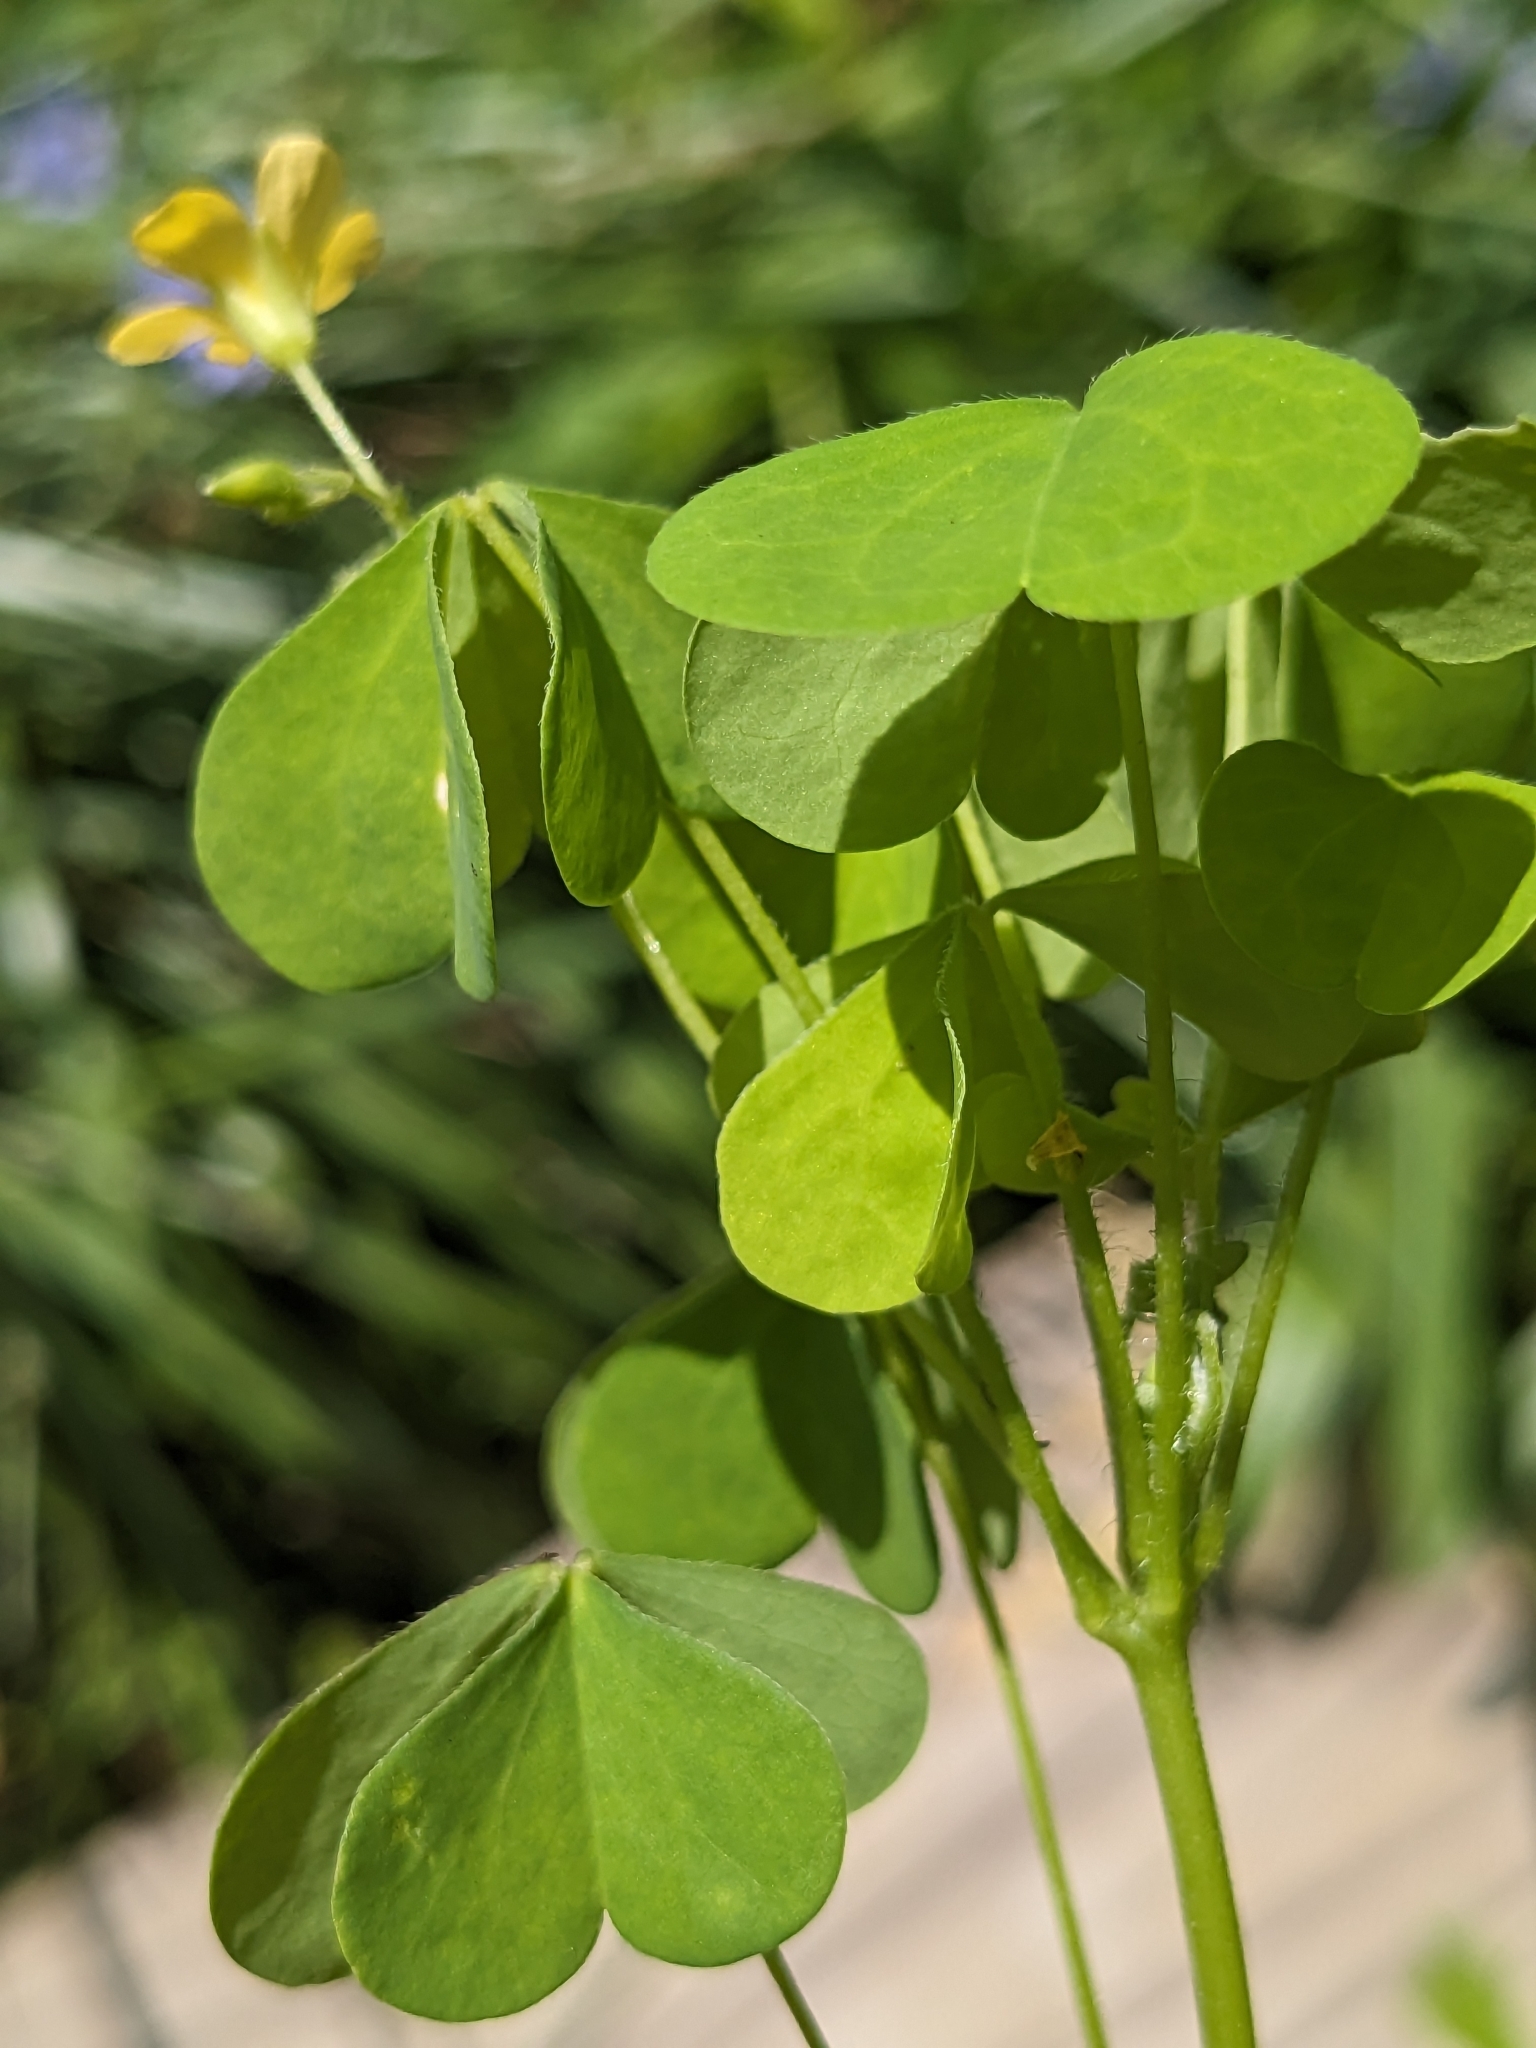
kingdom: Plantae
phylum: Tracheophyta
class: Magnoliopsida
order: Oxalidales
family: Oxalidaceae
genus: Oxalis
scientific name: Oxalis stricta
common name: Upright yellow-sorrel
